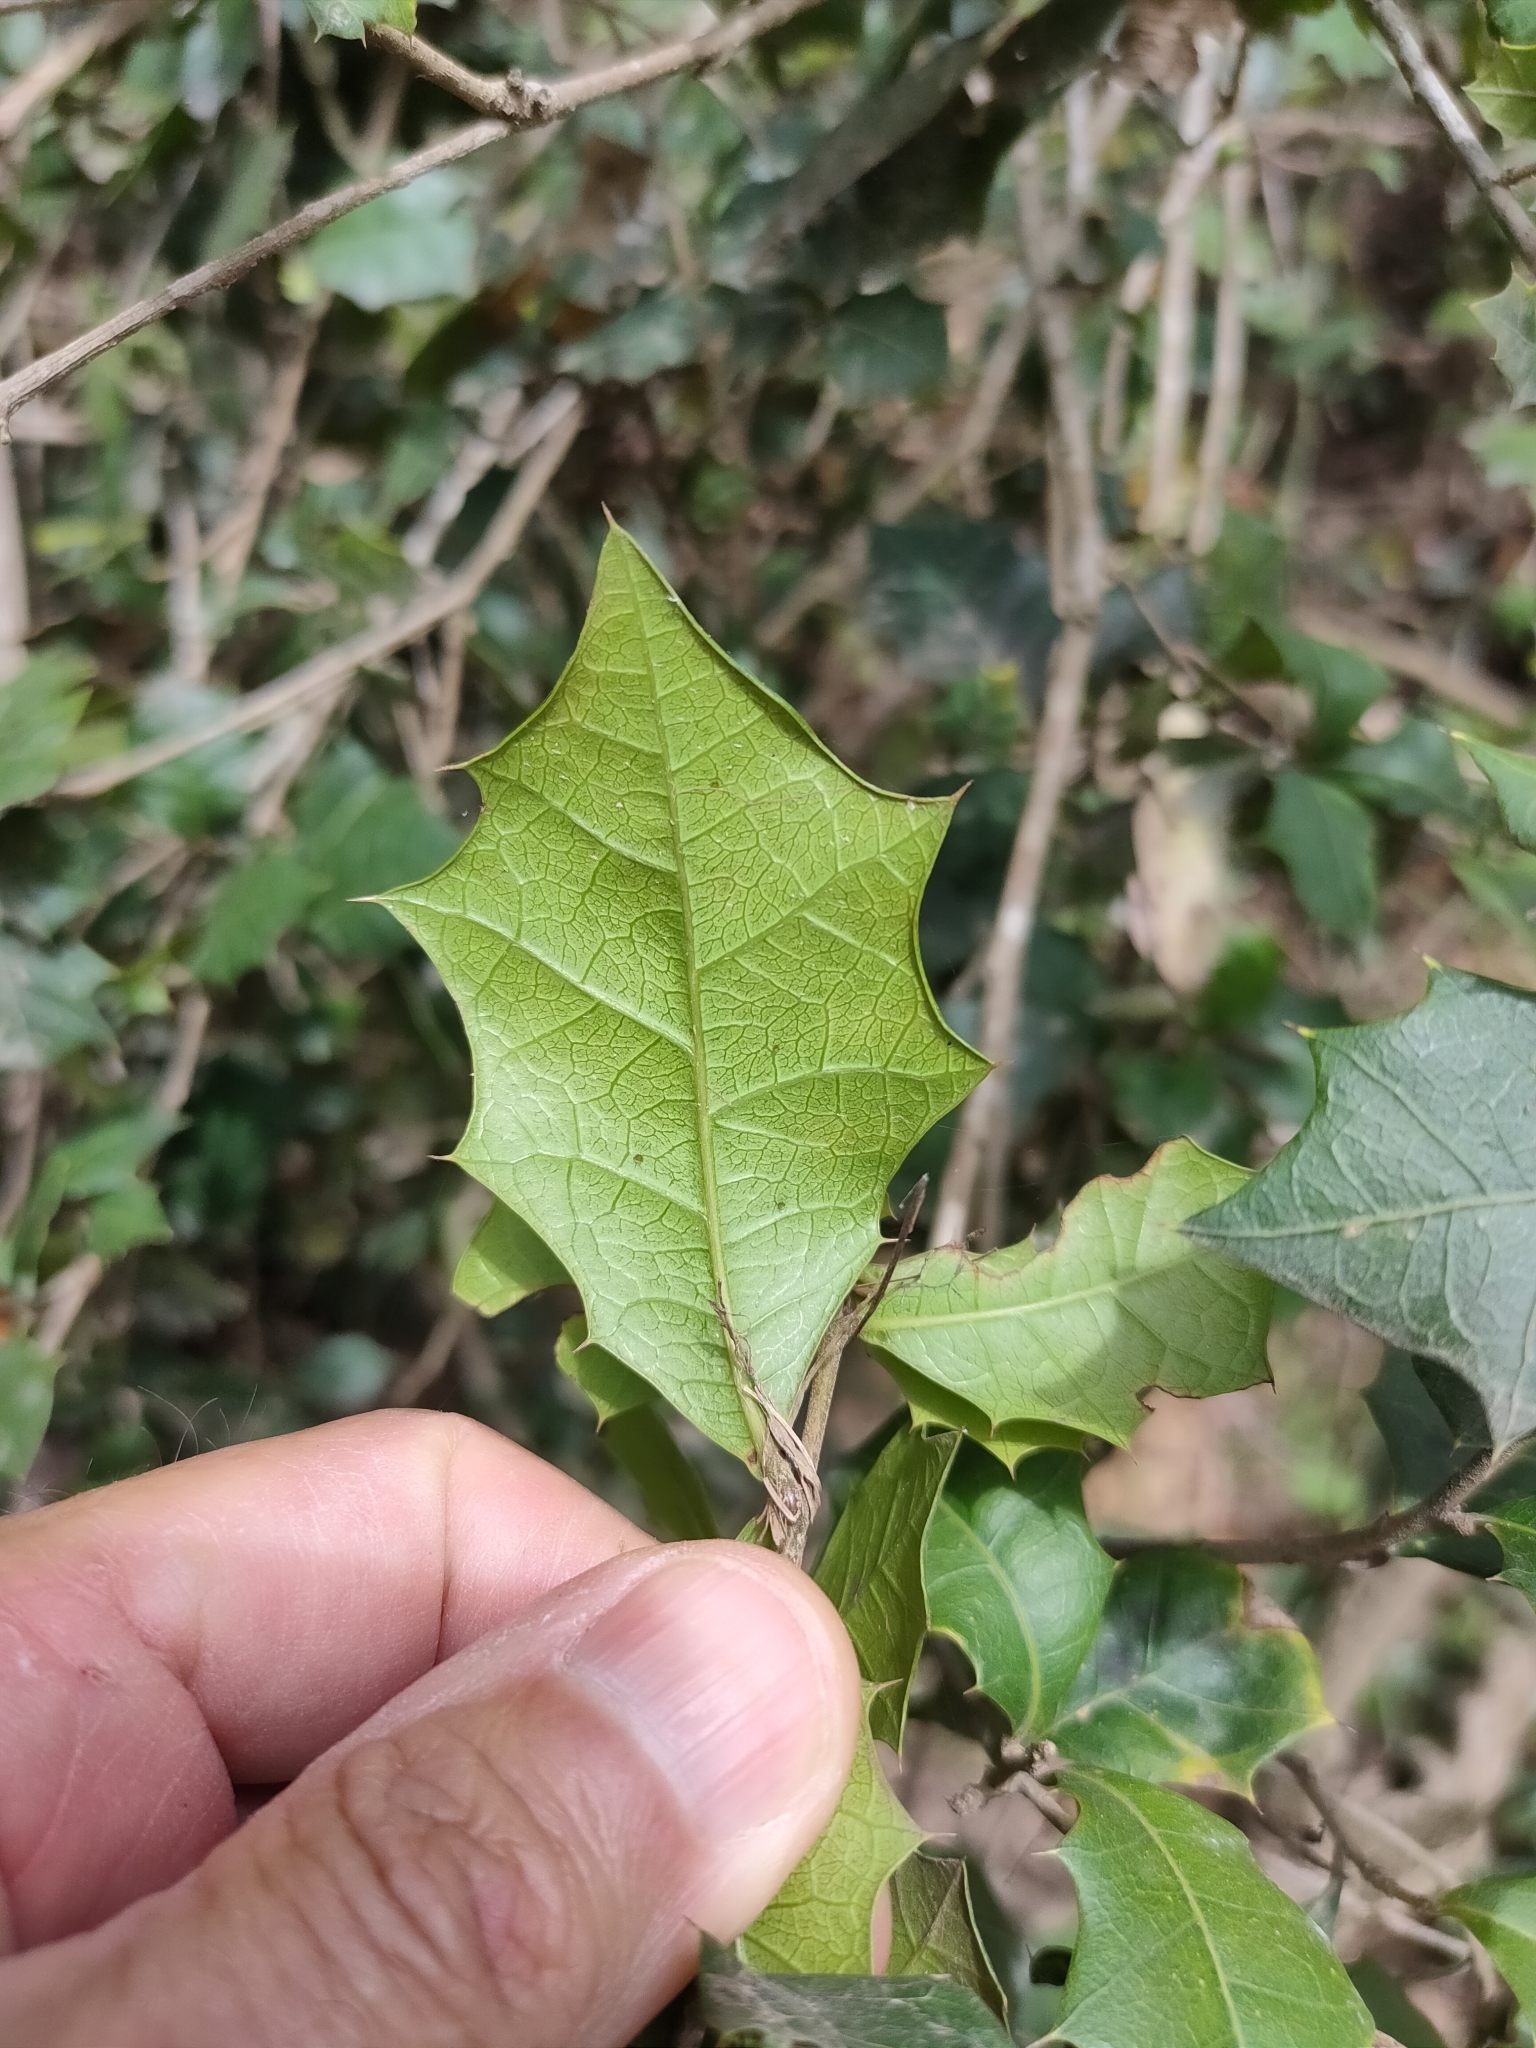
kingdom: Plantae
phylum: Tracheophyta
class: Magnoliopsida
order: Malpighiales
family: Euphorbiaceae
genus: Alchornea
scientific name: Alchornea ilicifolia
